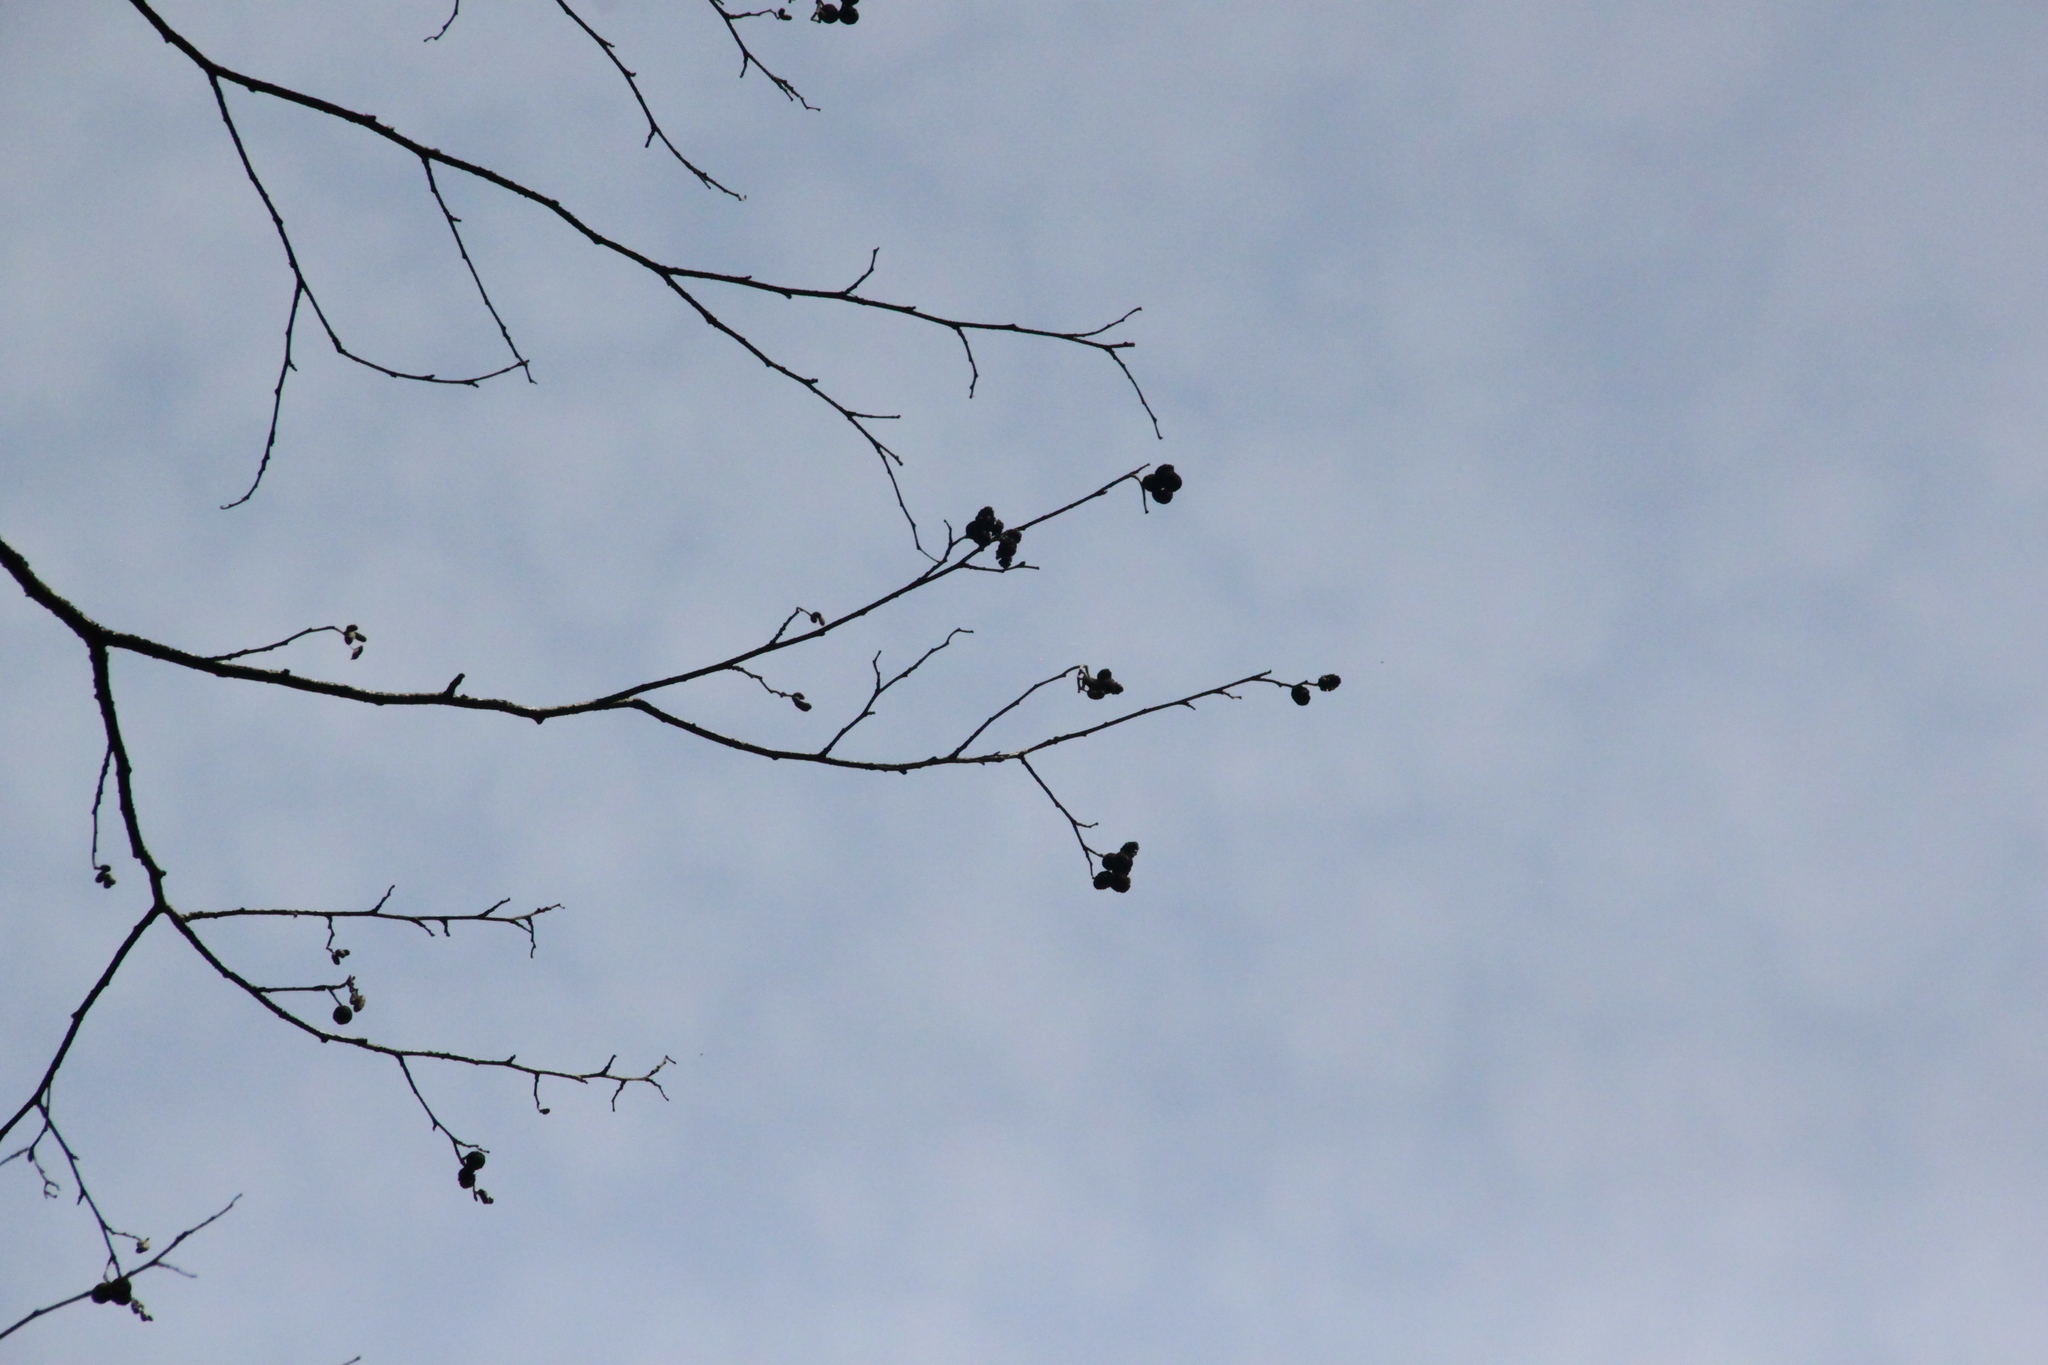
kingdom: Plantae
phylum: Tracheophyta
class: Magnoliopsida
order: Fagales
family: Betulaceae
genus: Alnus
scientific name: Alnus incana
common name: Grey alder
